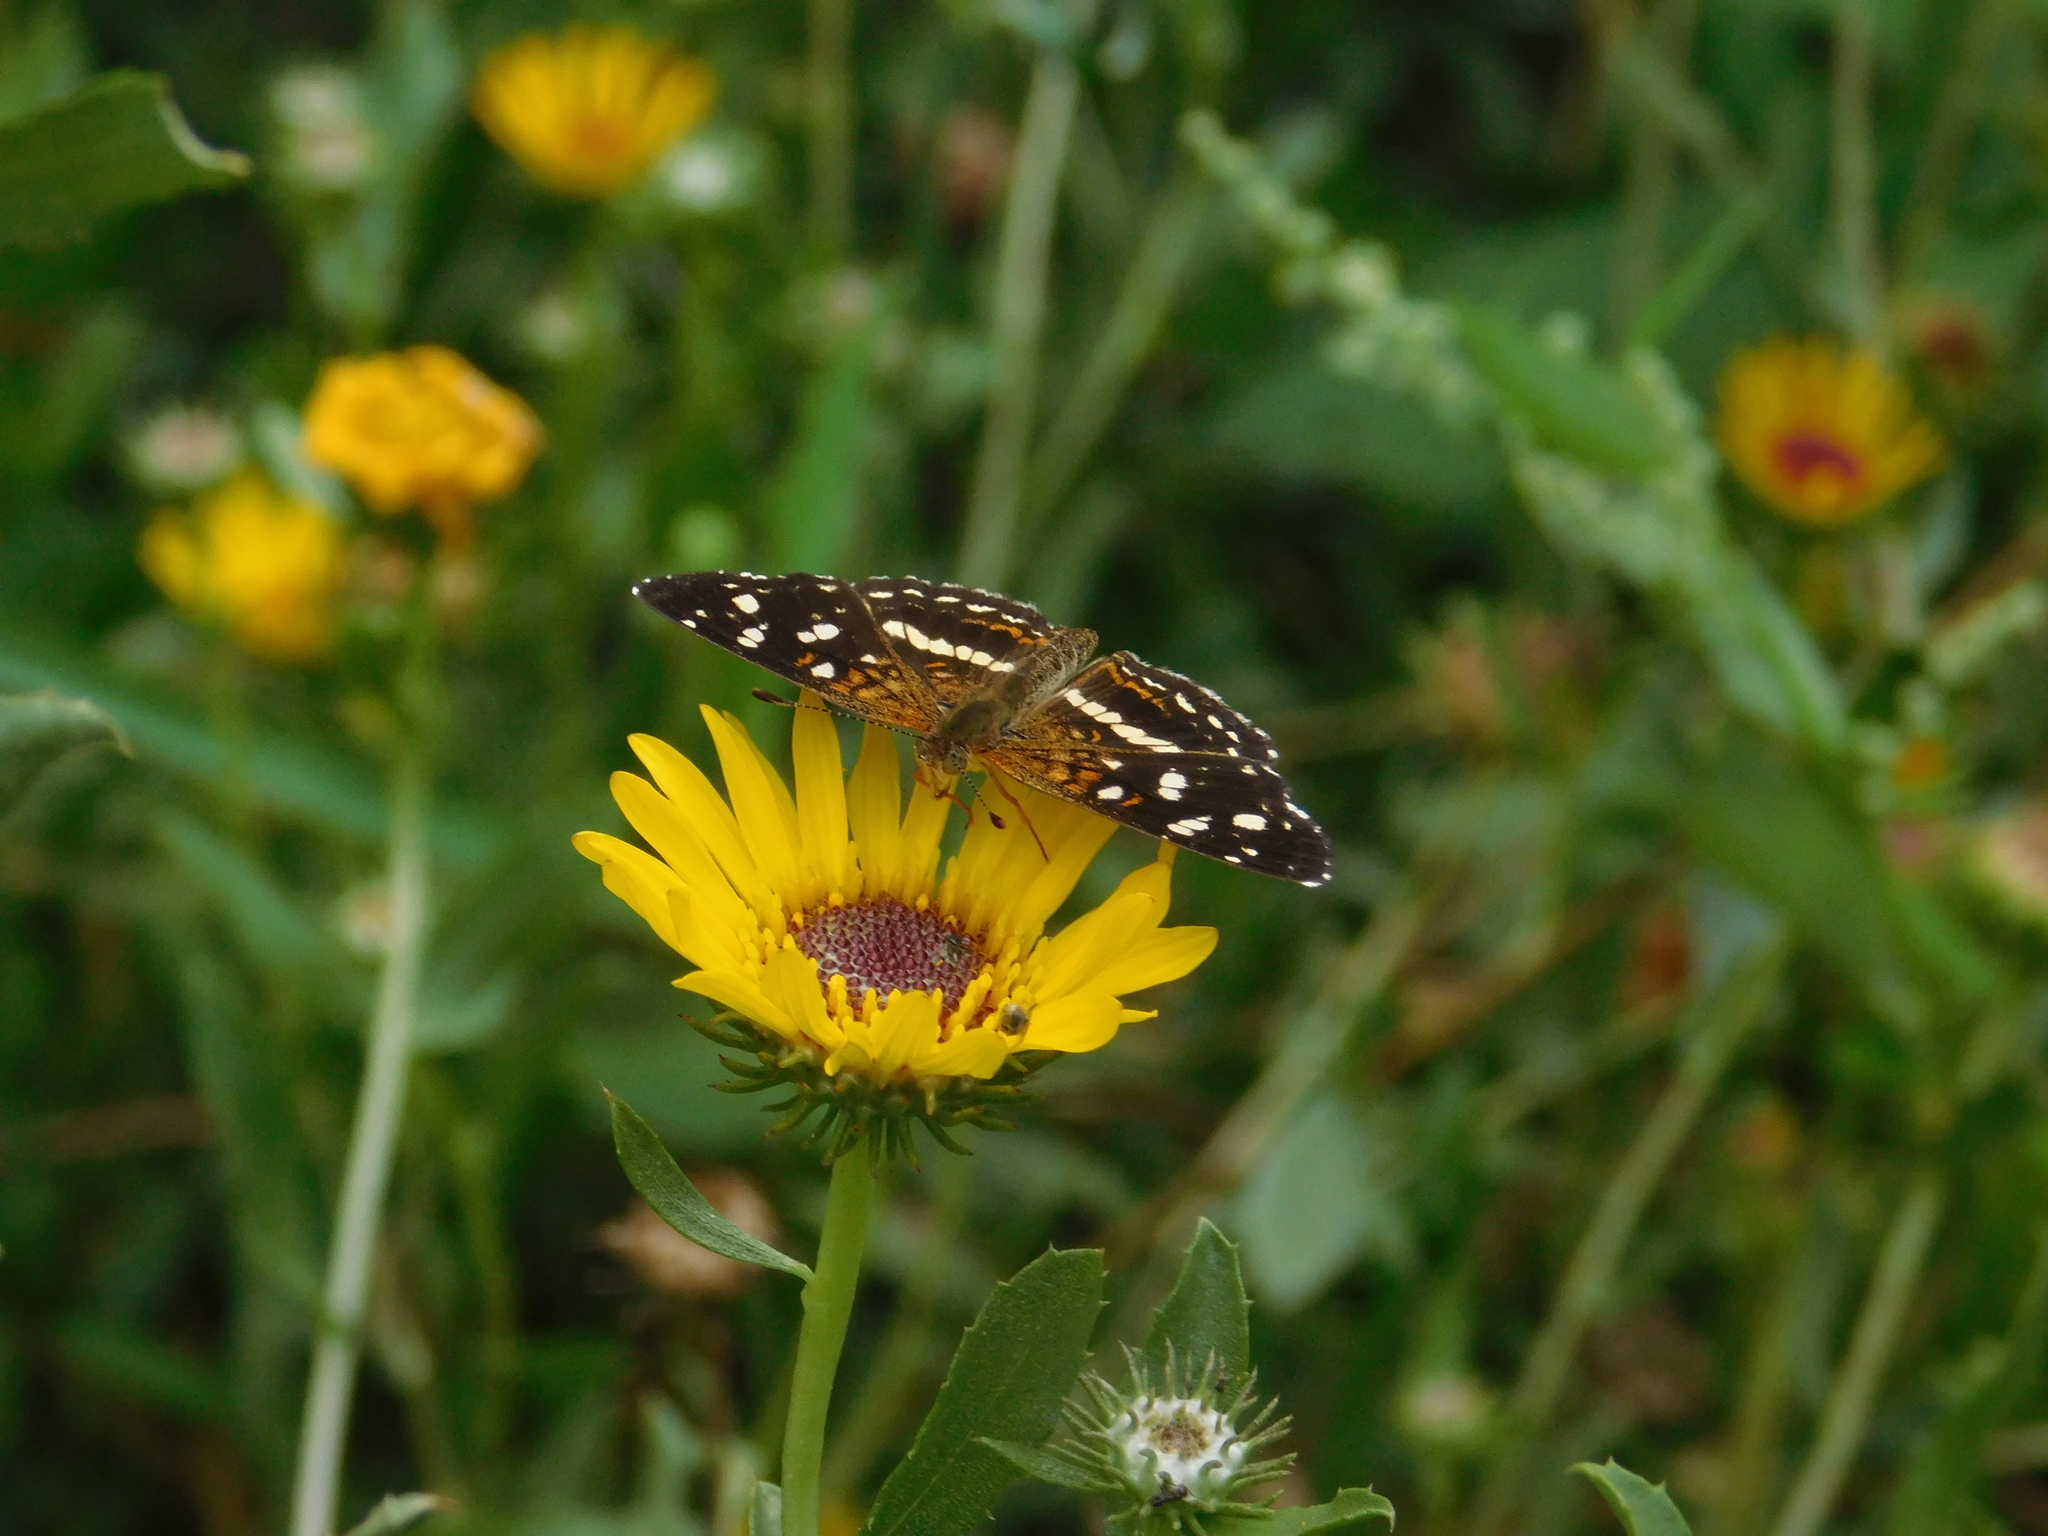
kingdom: Animalia
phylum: Arthropoda
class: Insecta
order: Lepidoptera
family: Nymphalidae
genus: Ortilia
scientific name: Ortilia ithra
